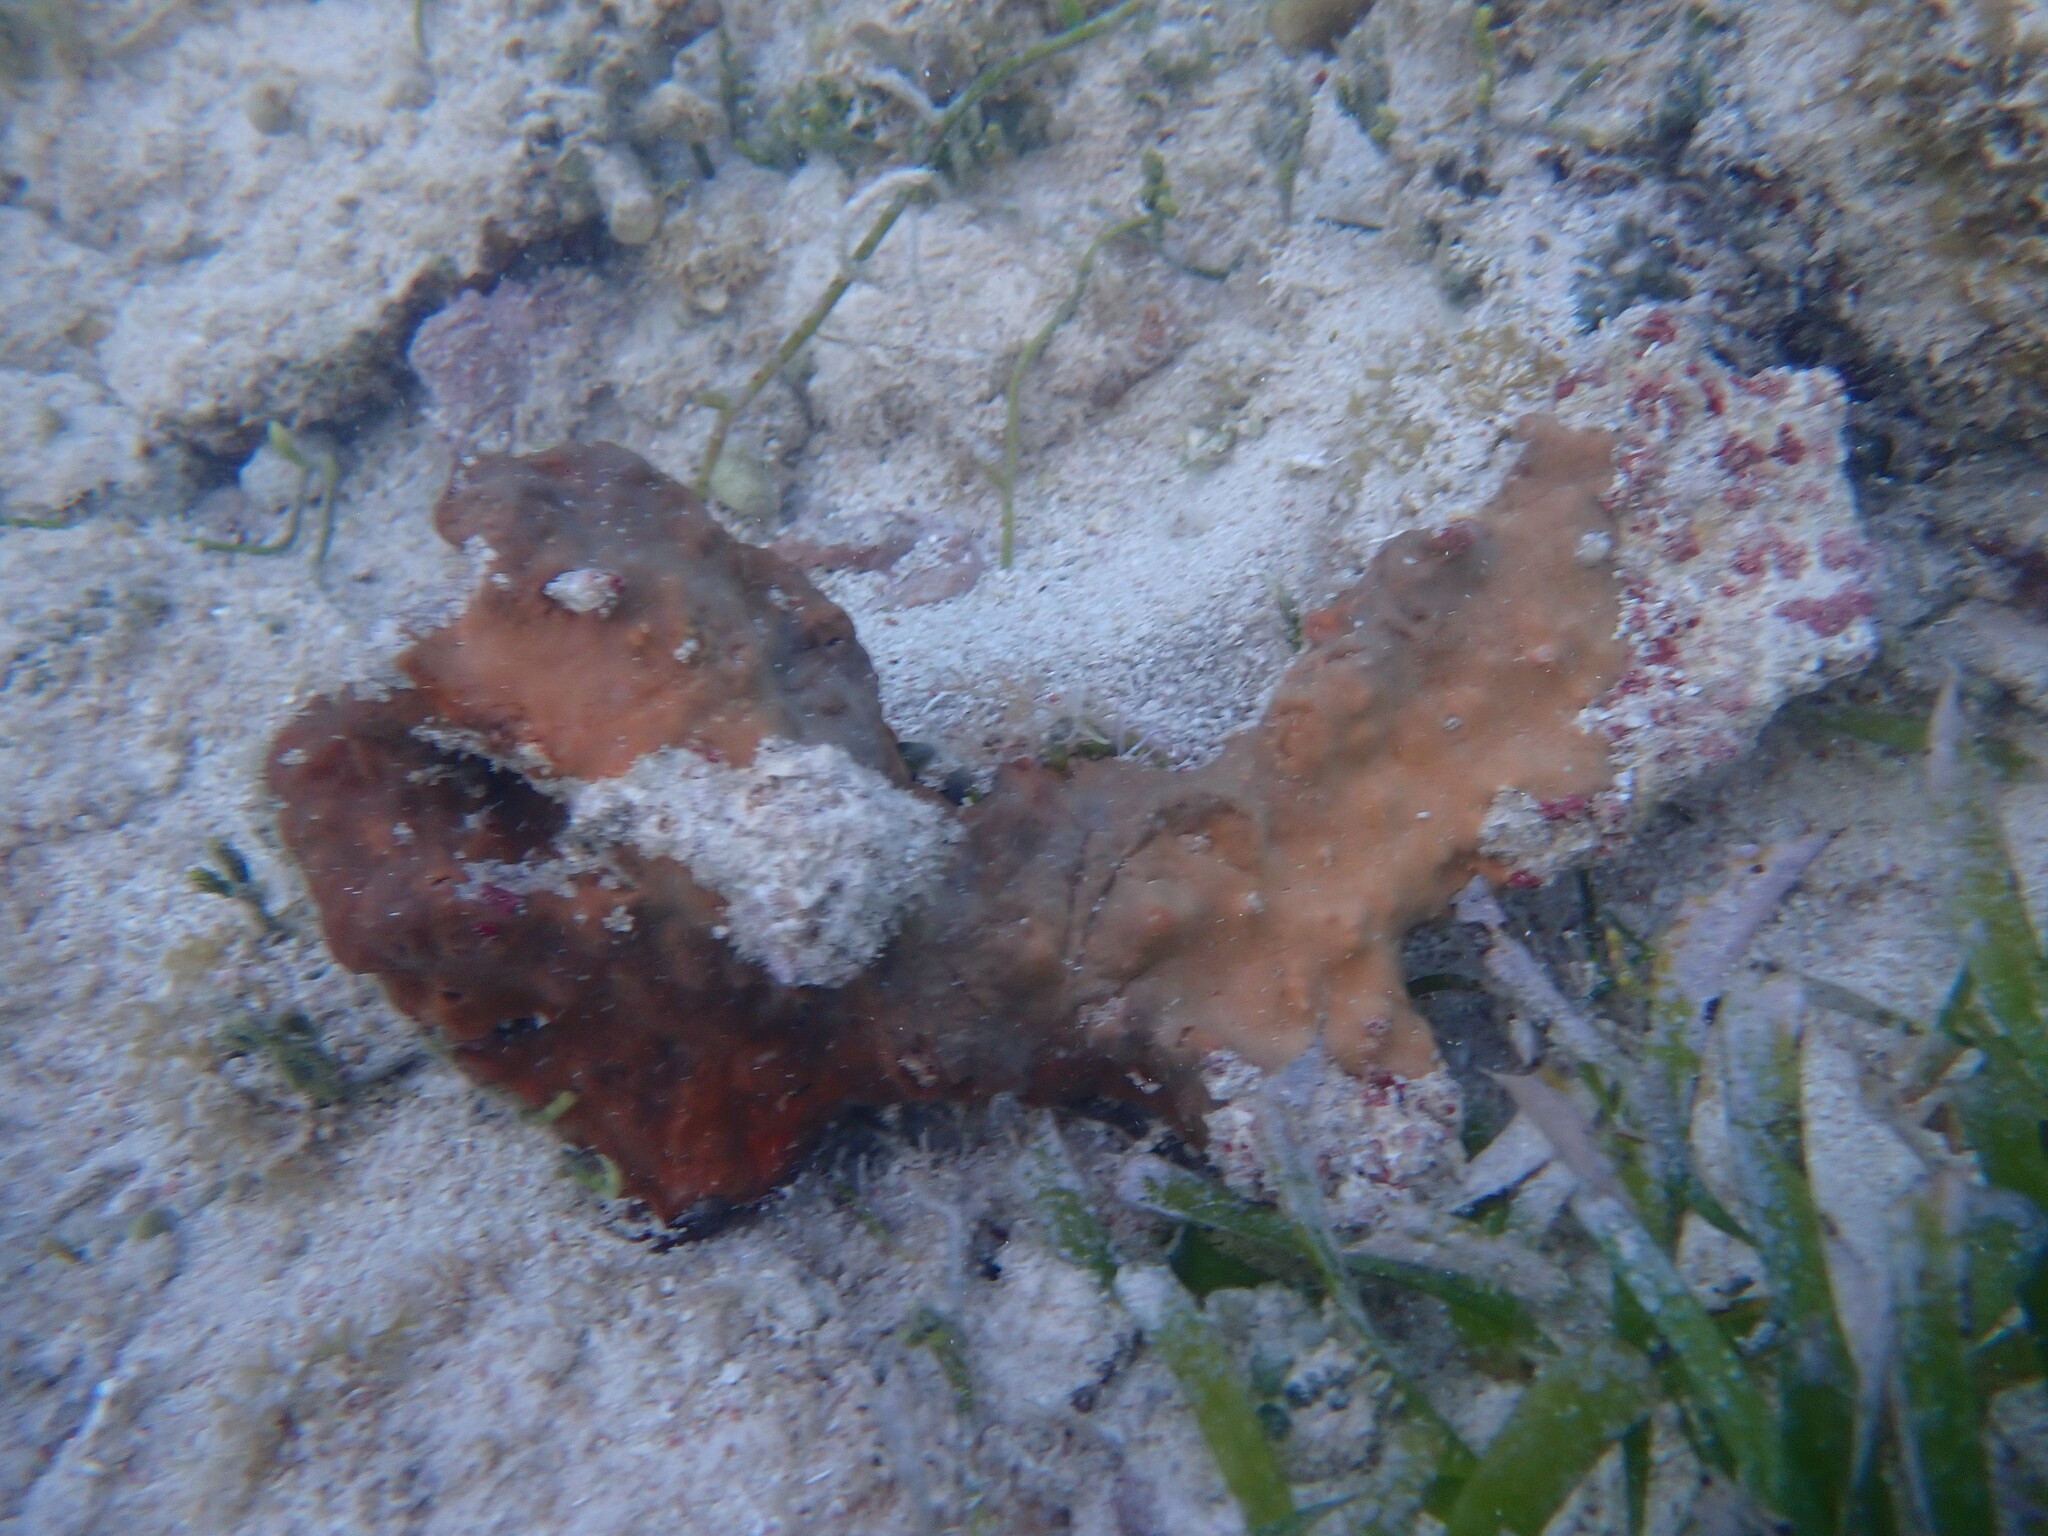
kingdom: Animalia
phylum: Porifera
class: Demospongiae
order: Clionaida
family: Spirastrellidae
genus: Spirastrella
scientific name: Spirastrella hartmani
